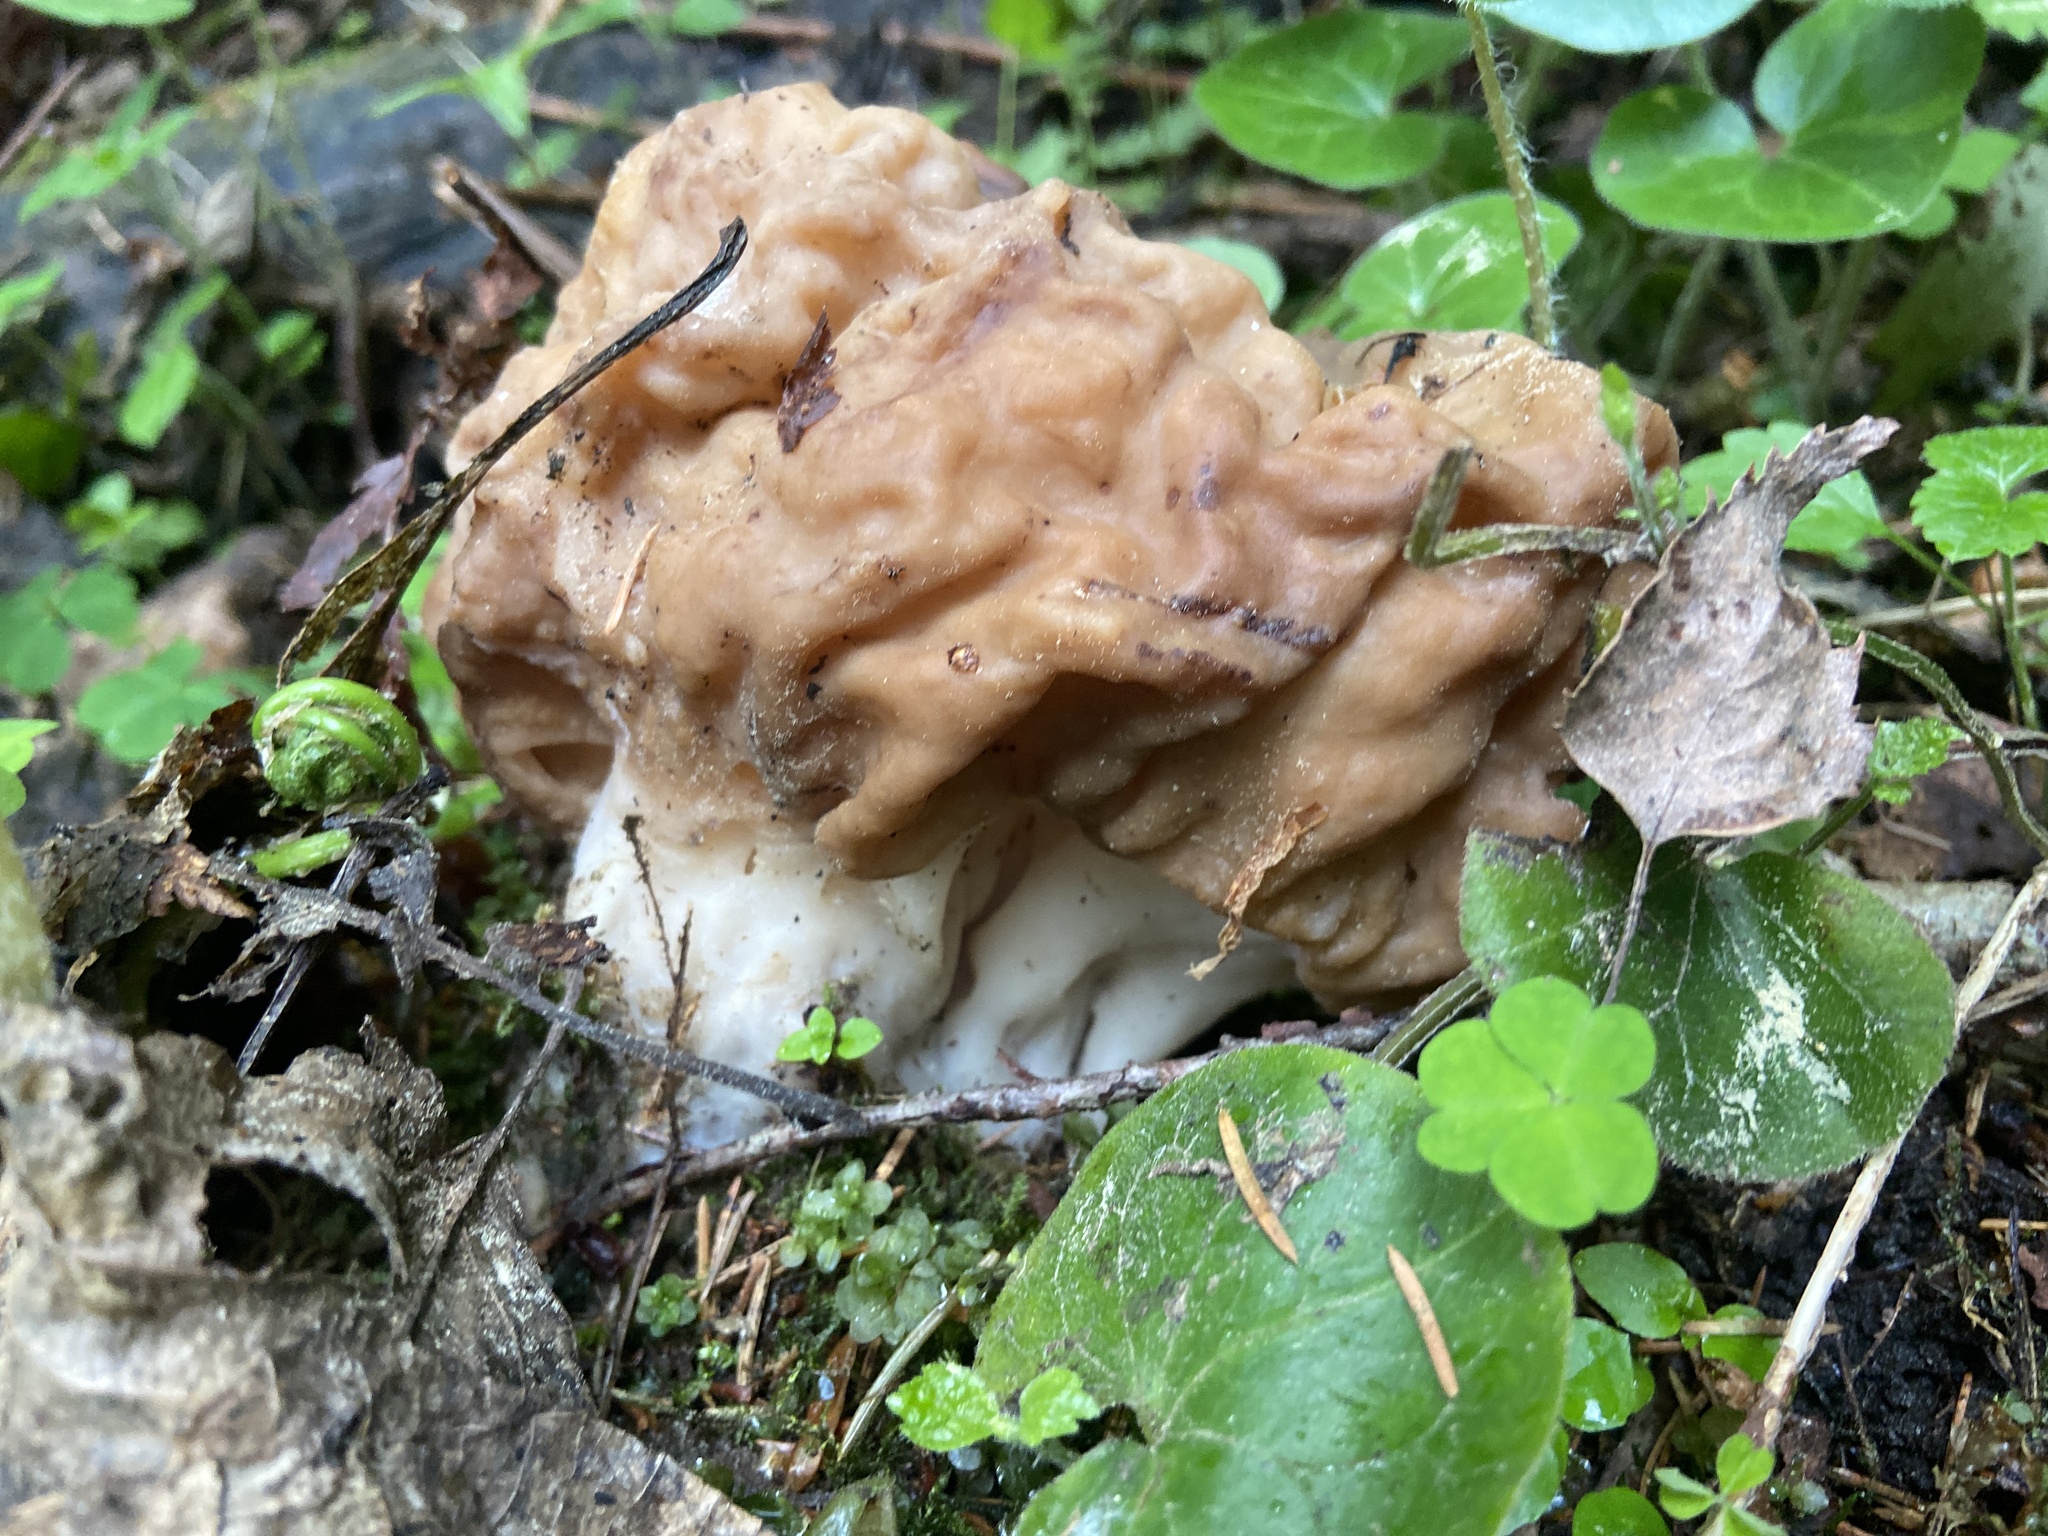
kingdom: Fungi
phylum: Ascomycota
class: Pezizomycetes
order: Pezizales
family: Discinaceae
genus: Gyromitra
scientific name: Gyromitra gigas
